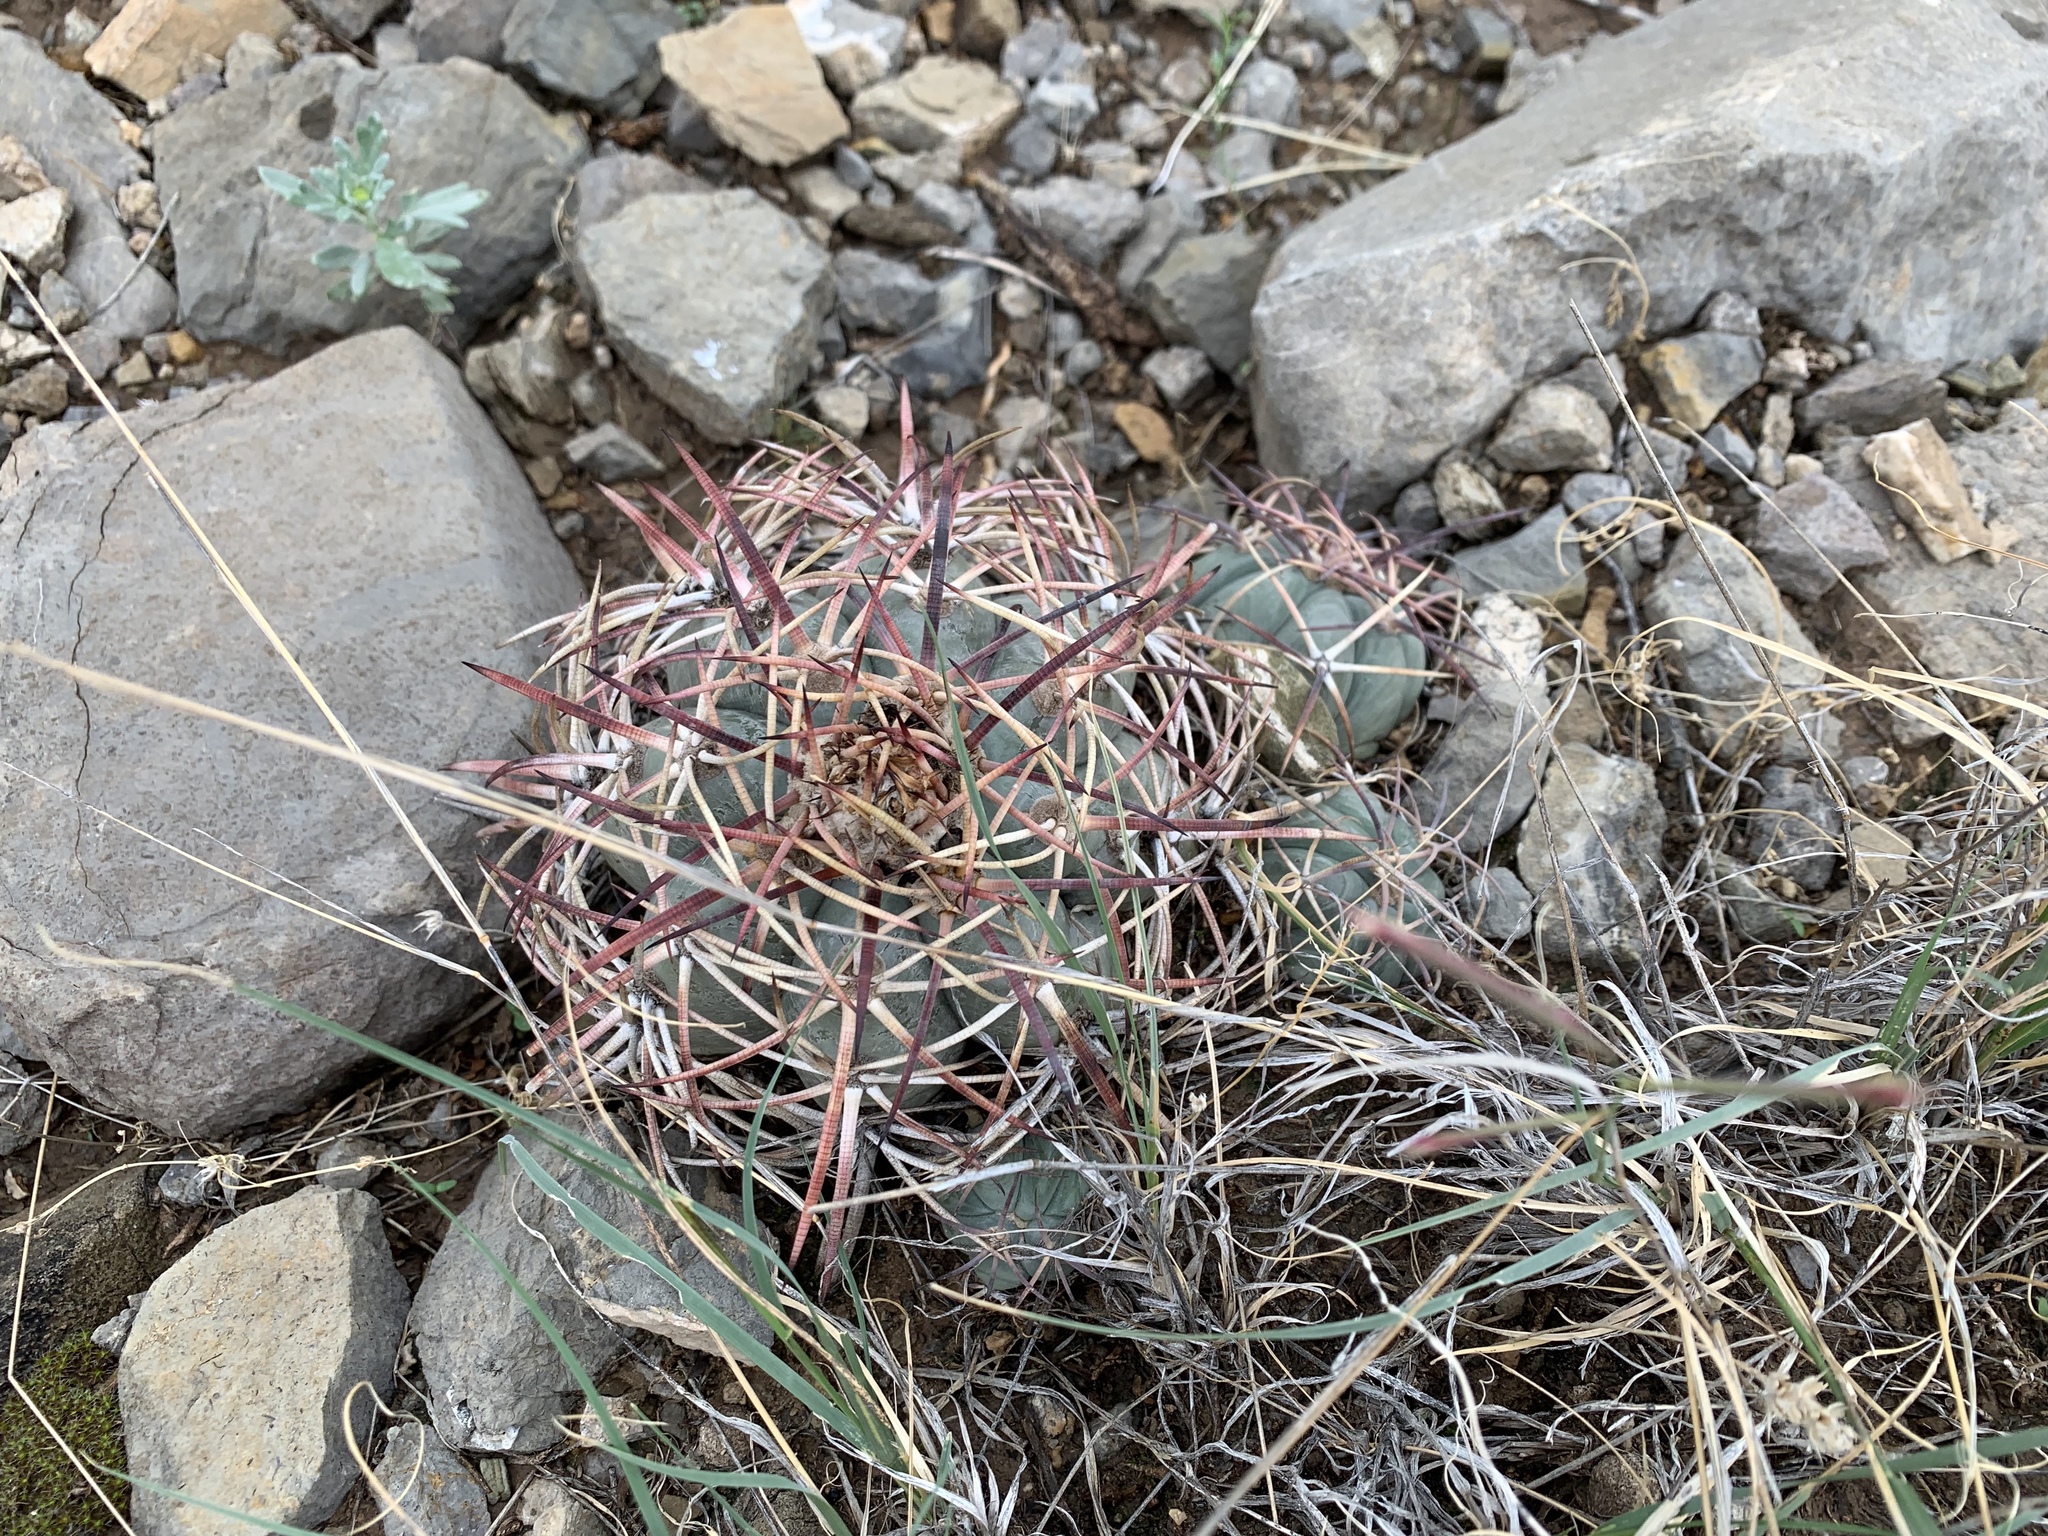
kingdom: Plantae
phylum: Tracheophyta
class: Magnoliopsida
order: Caryophyllales
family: Cactaceae
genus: Echinocactus
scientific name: Echinocactus horizonthalonius
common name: Devilshead
